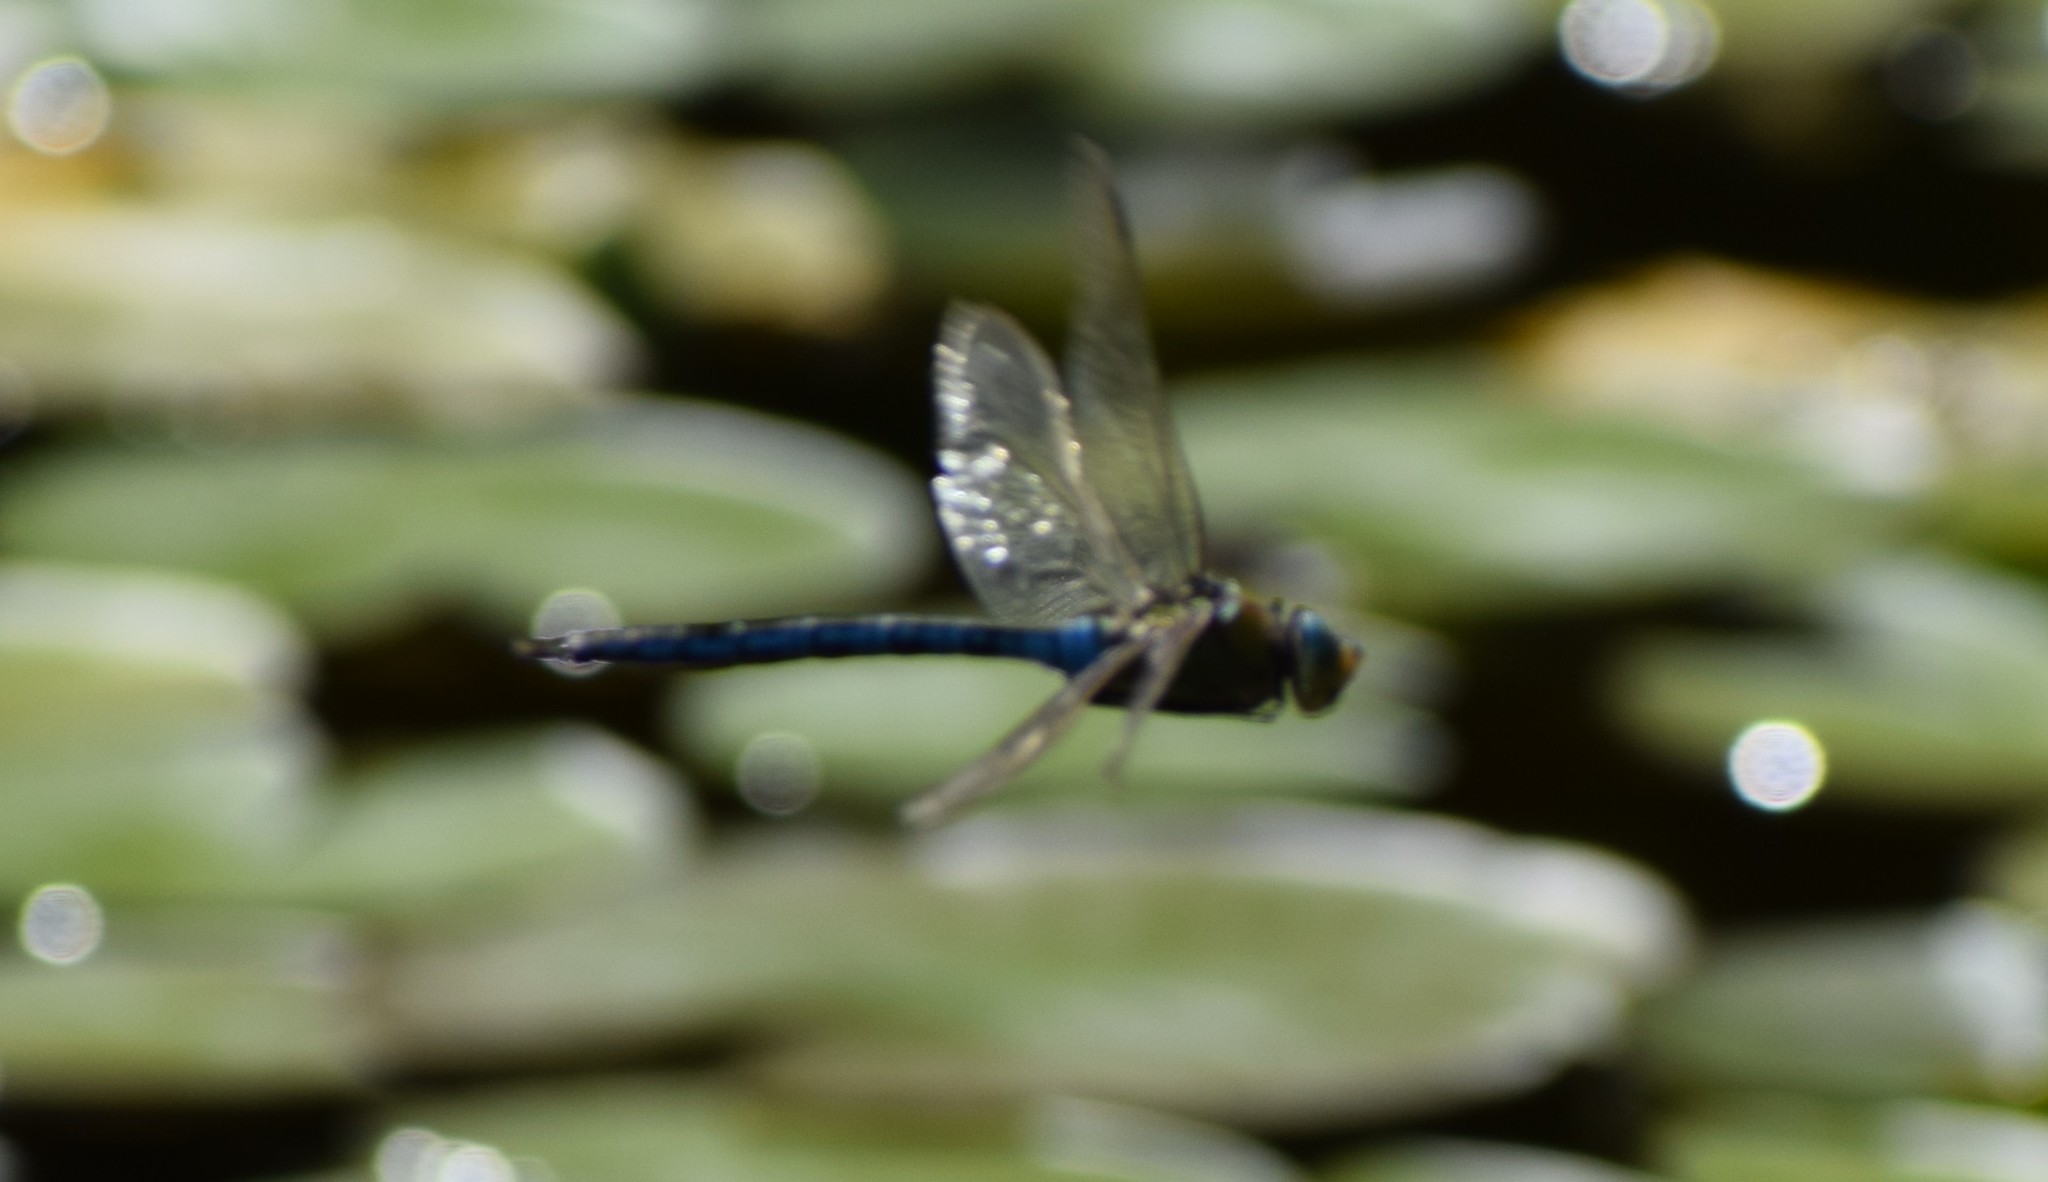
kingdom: Animalia
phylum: Arthropoda
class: Insecta
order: Odonata
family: Aeshnidae
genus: Anax
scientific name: Anax imperator
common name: Emperor dragonfly
